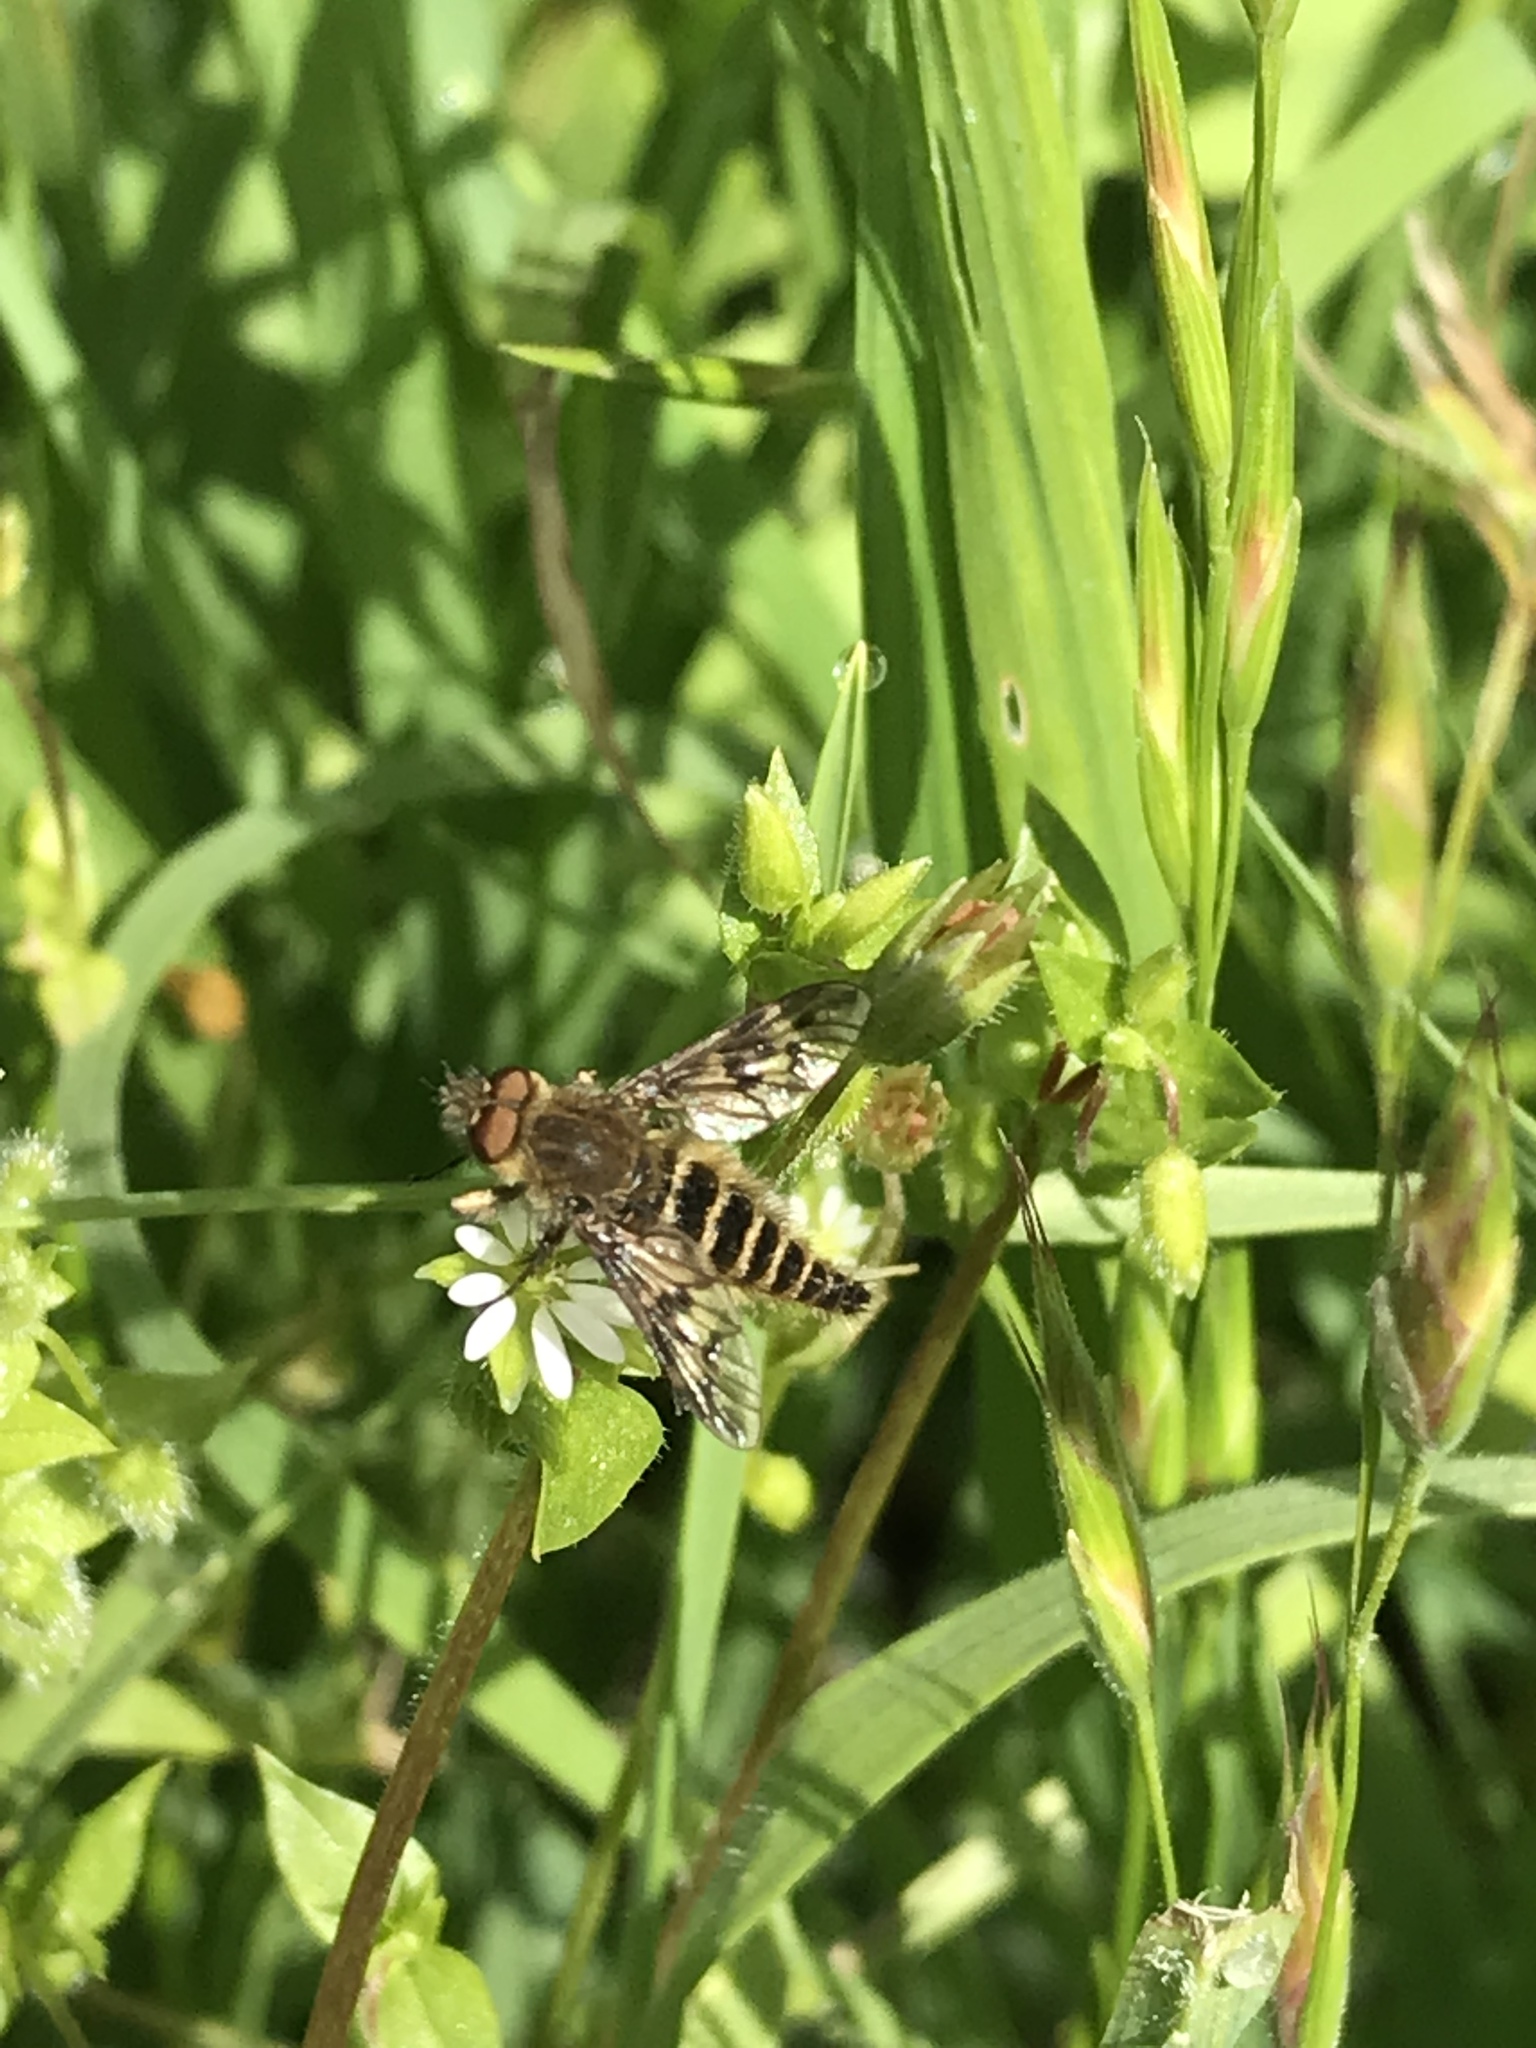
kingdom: Animalia
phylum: Arthropoda
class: Insecta
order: Diptera
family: Therevidae
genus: Thereva
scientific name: Thereva comata
